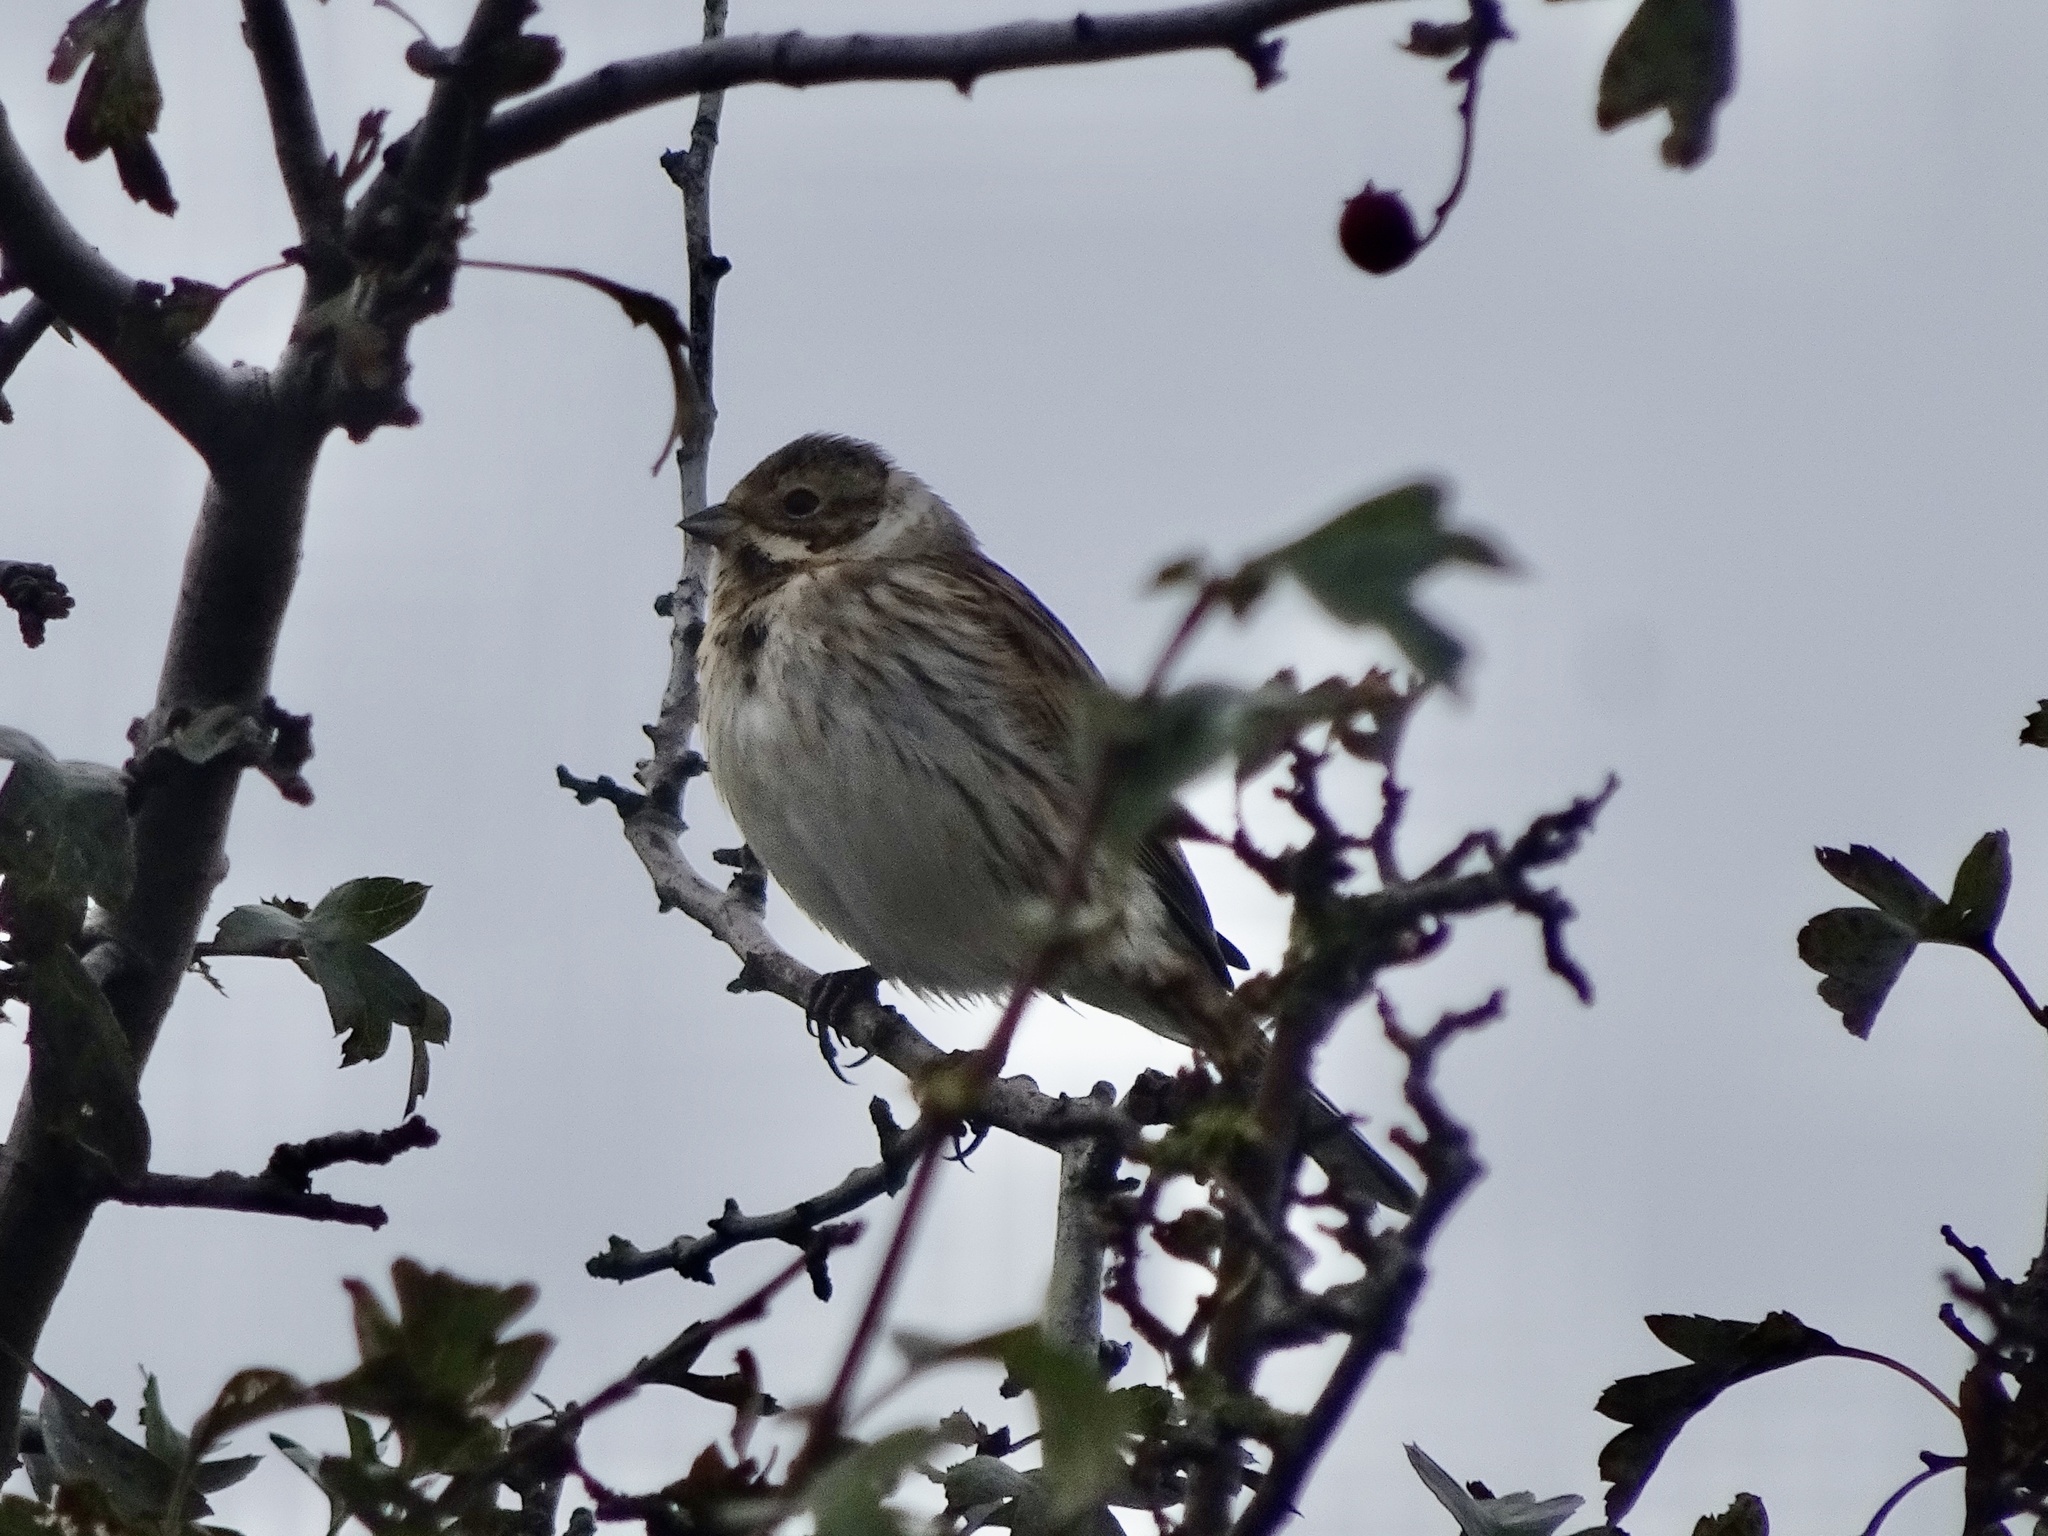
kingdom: Animalia
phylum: Chordata
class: Aves
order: Passeriformes
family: Emberizidae
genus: Emberiza
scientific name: Emberiza schoeniclus
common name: Reed bunting
